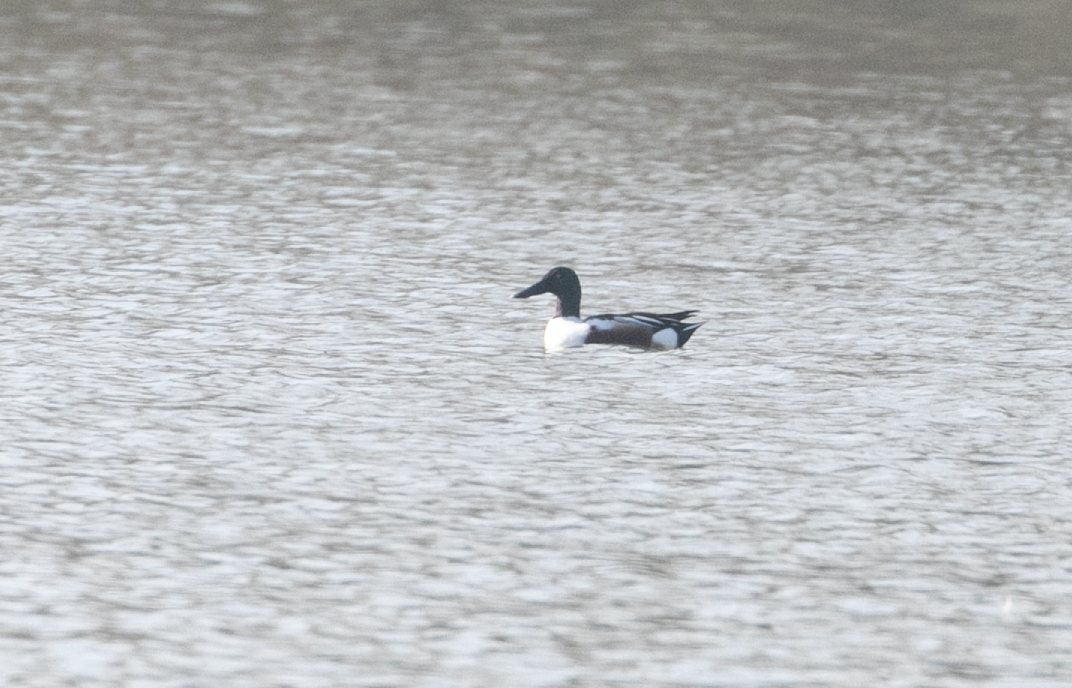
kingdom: Animalia
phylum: Chordata
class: Aves
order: Anseriformes
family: Anatidae
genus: Spatula
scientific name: Spatula clypeata
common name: Northern shoveler
